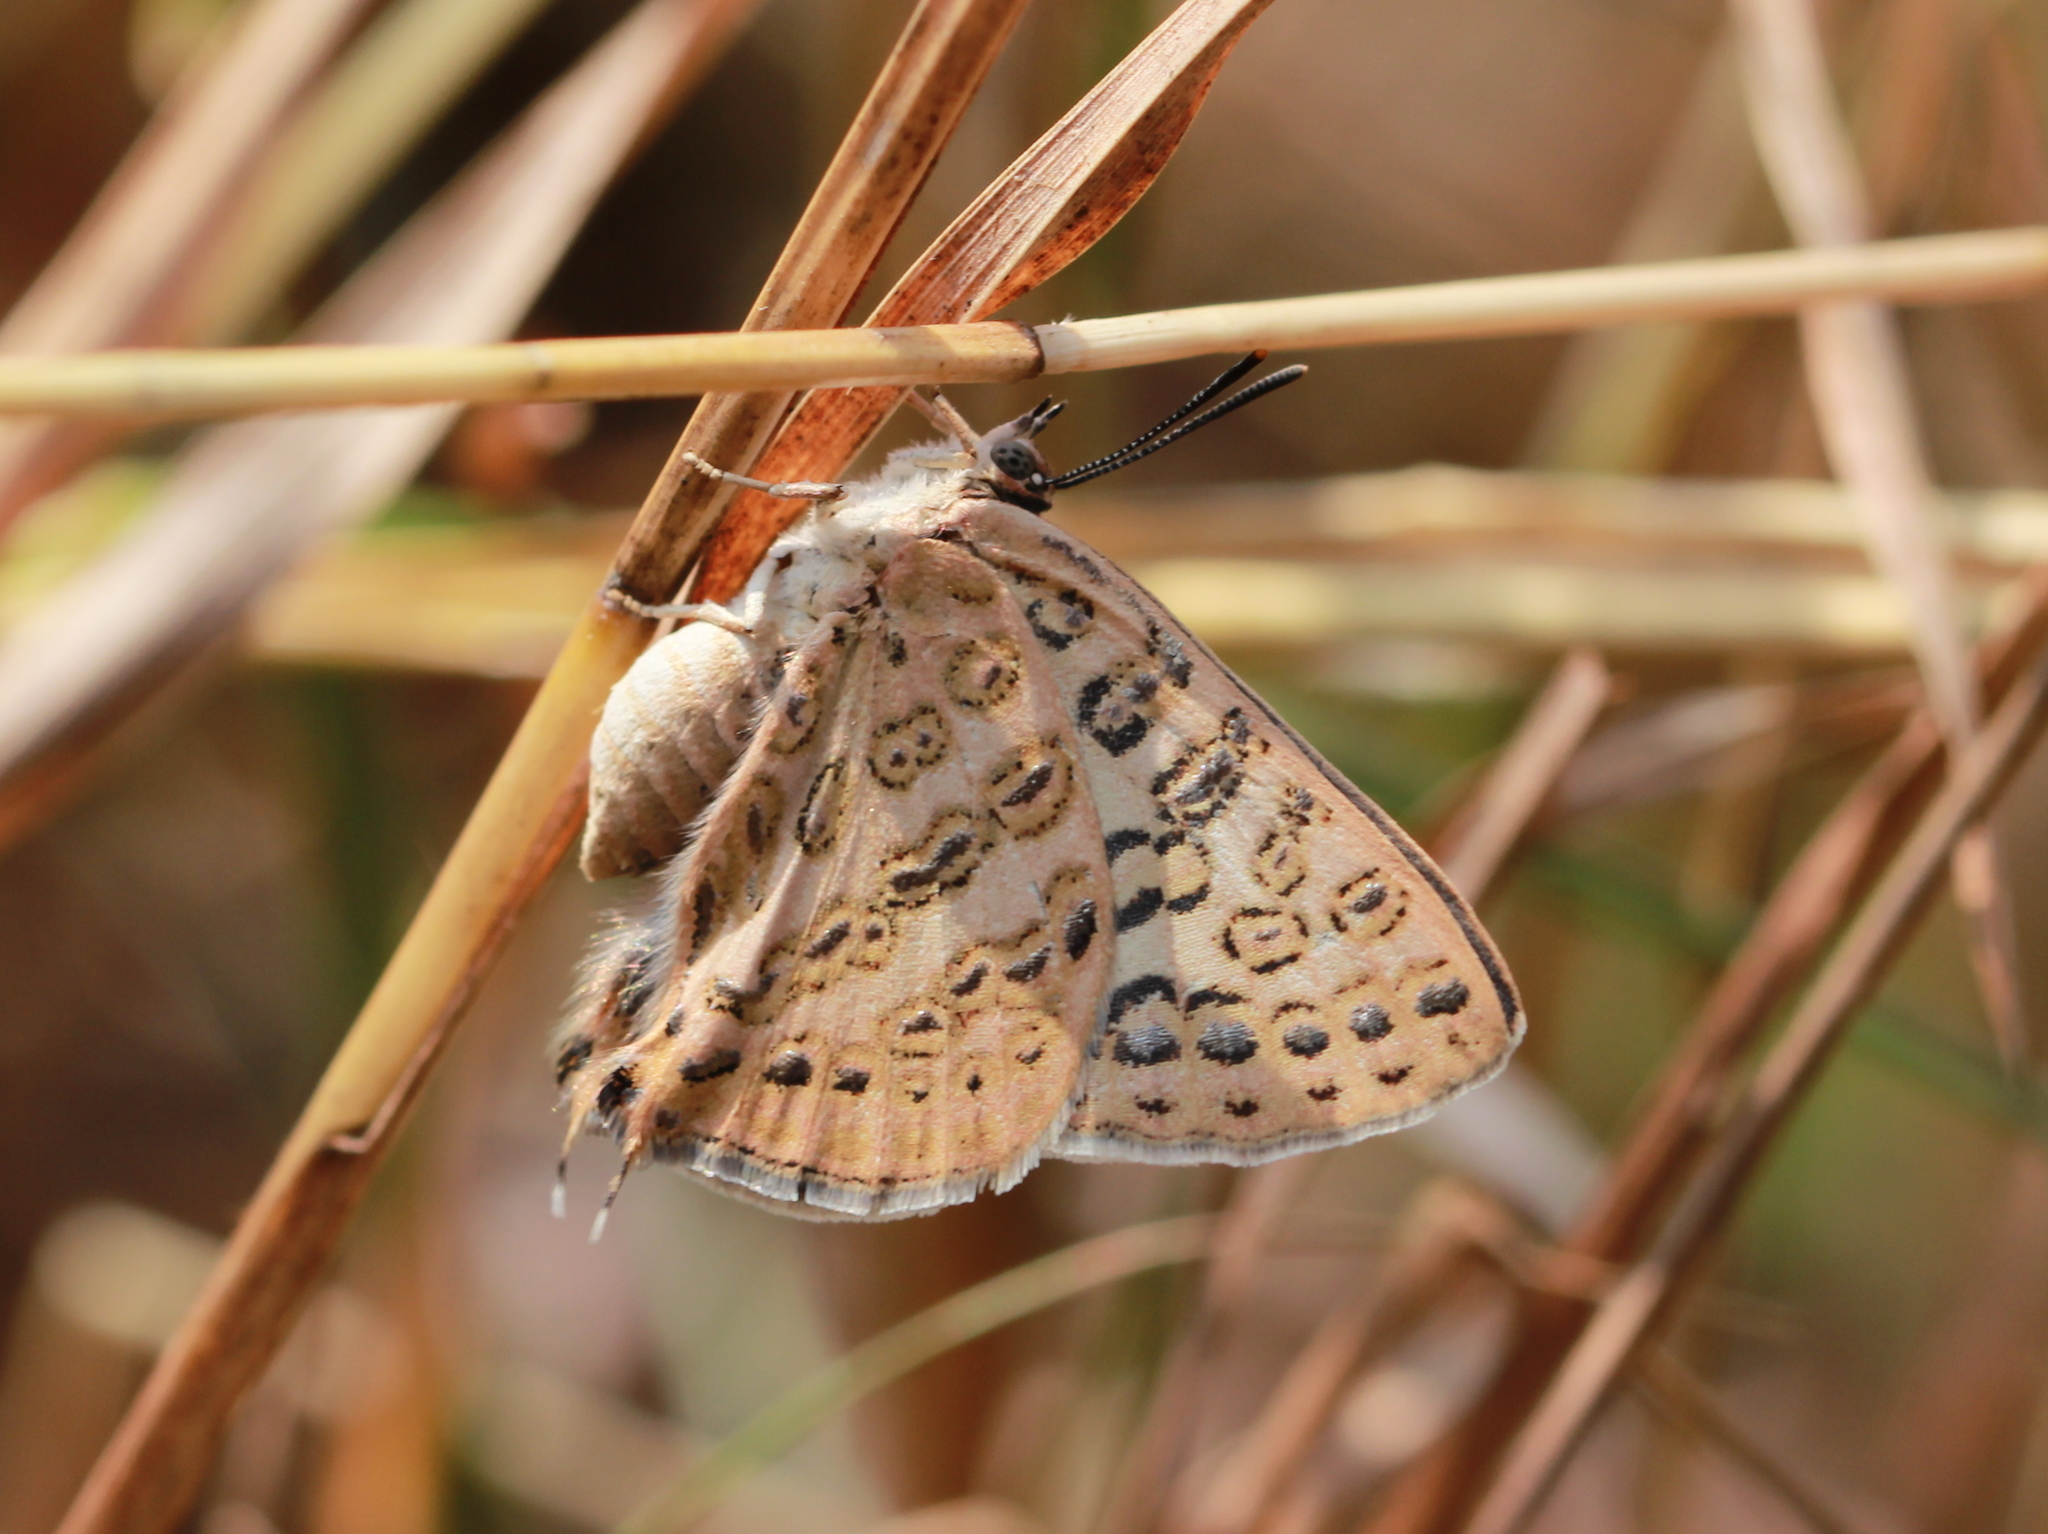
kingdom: Animalia
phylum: Arthropoda
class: Insecta
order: Lepidoptera
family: Lycaenidae
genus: Aphnaeus
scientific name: Aphnaeus lilacinus
